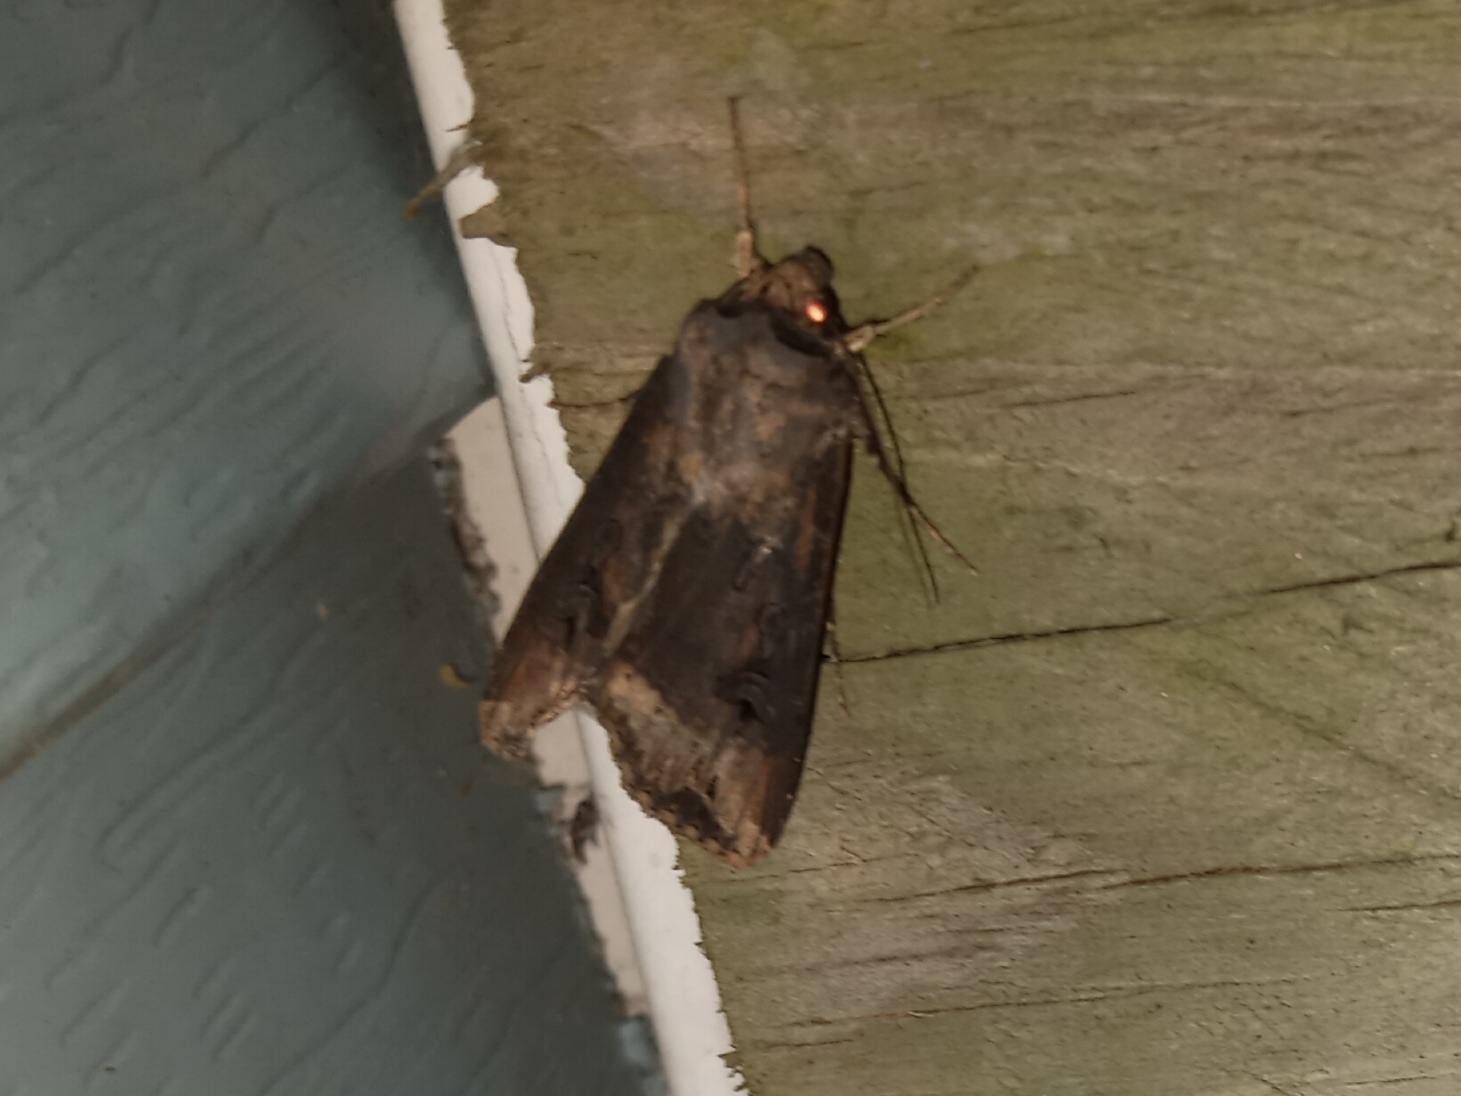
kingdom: Animalia
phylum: Arthropoda
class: Insecta
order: Lepidoptera
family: Noctuidae
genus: Agrotis
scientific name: Agrotis ipsilon
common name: Dark sword-grass
